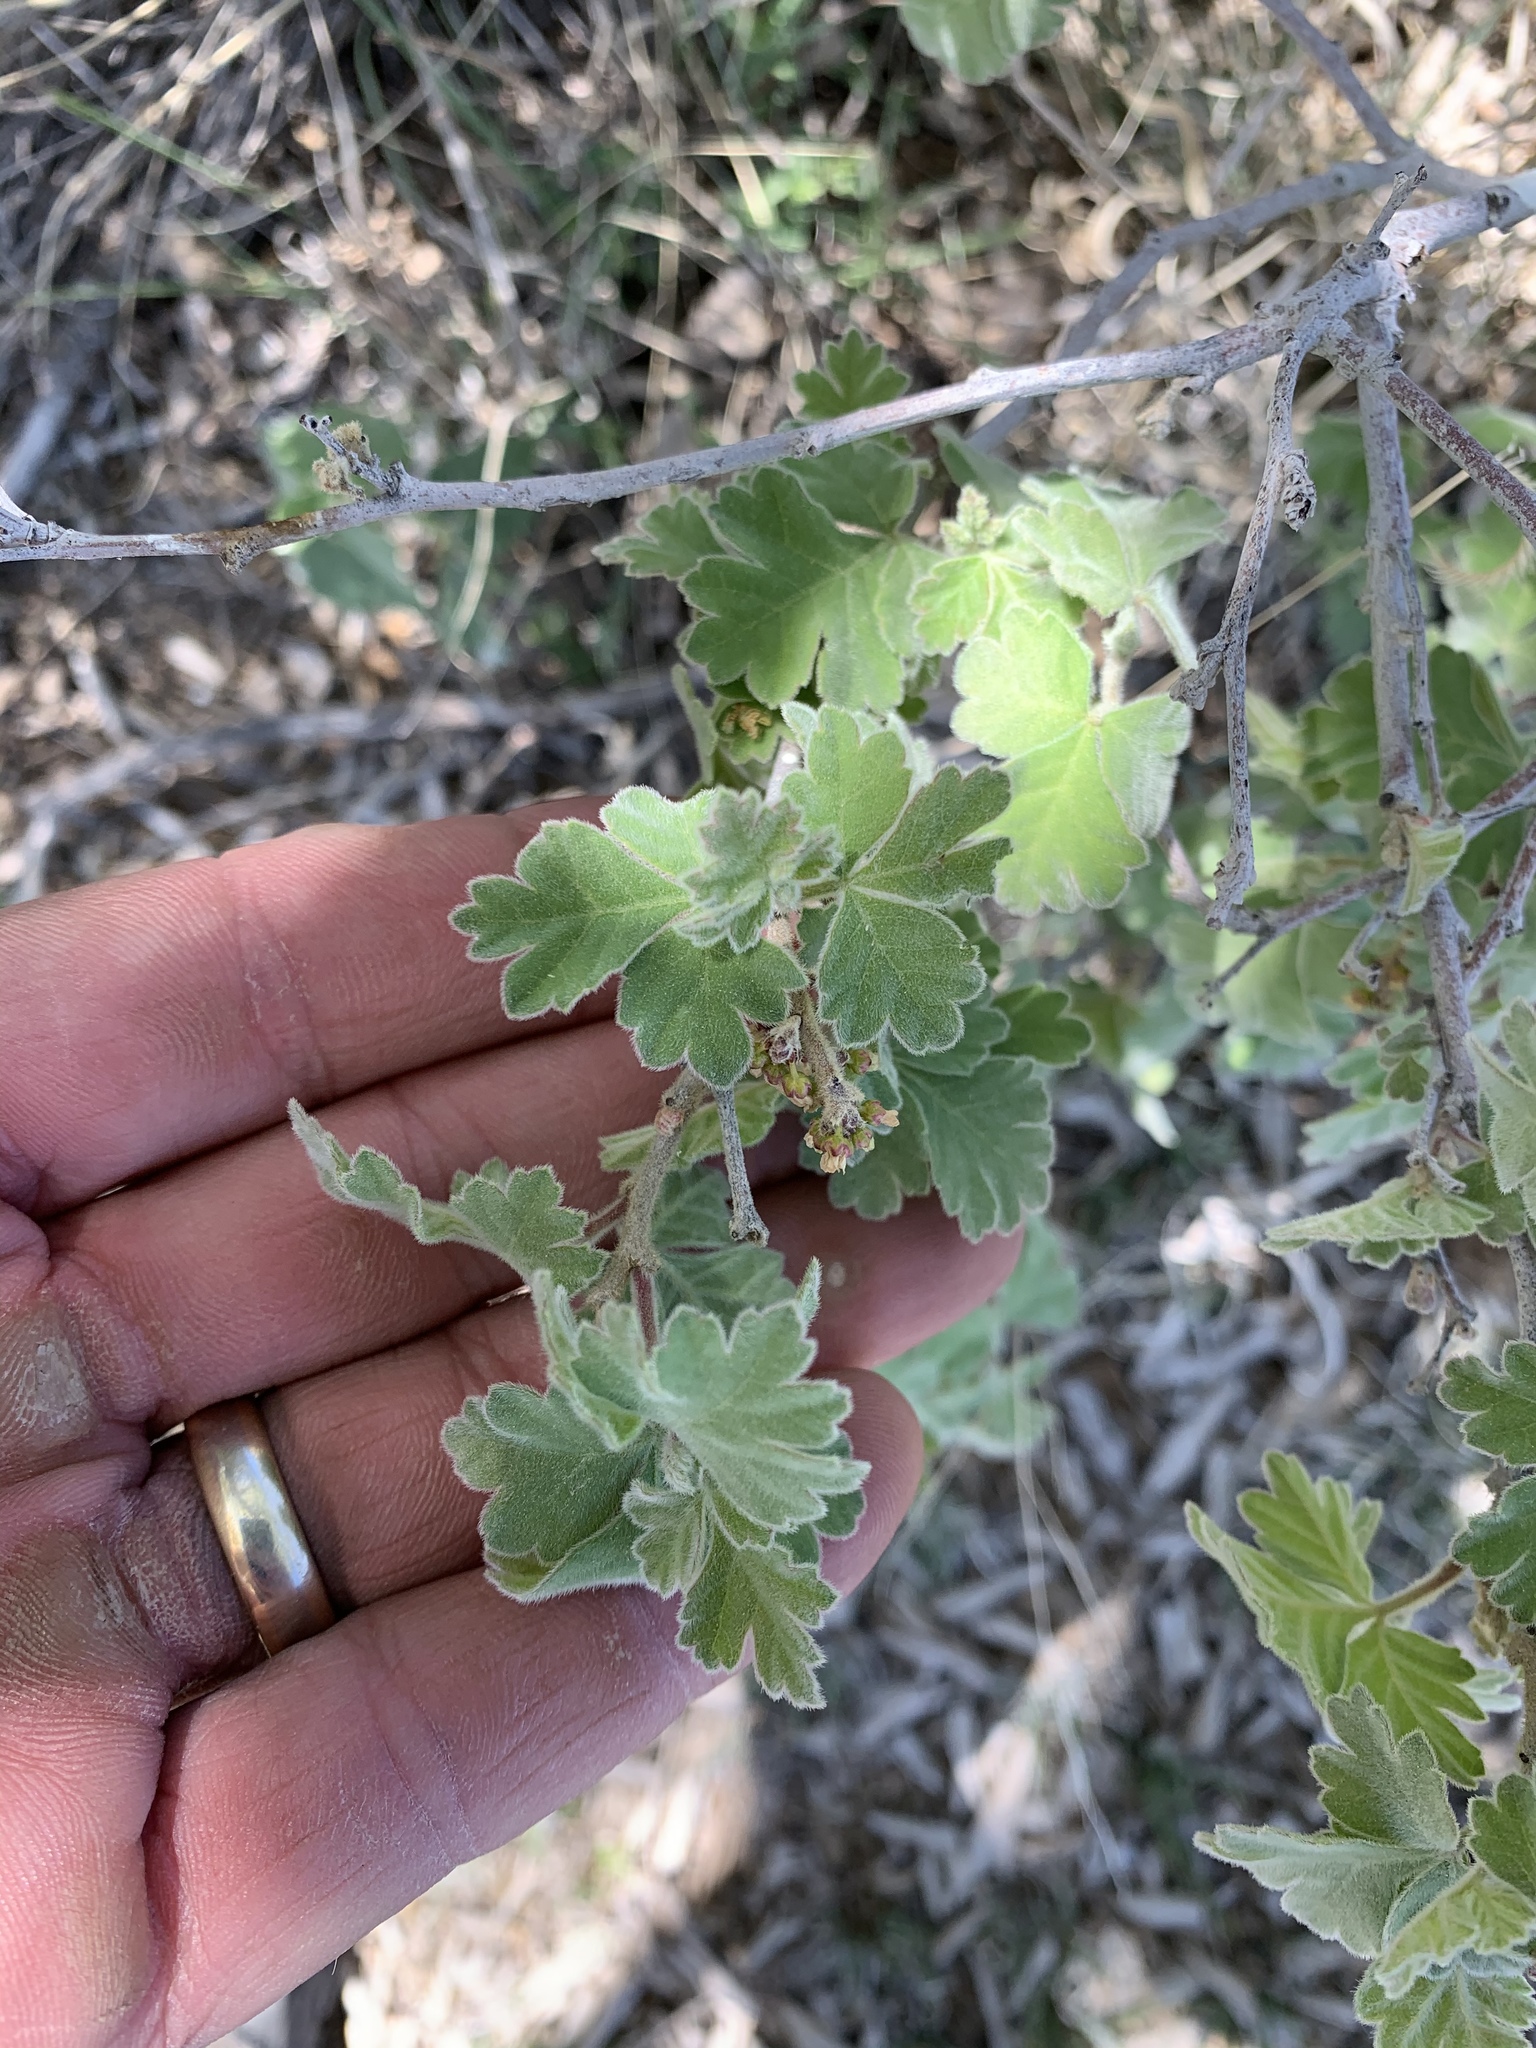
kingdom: Plantae
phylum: Tracheophyta
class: Magnoliopsida
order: Sapindales
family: Anacardiaceae
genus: Rhus
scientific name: Rhus aromatica
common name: Aromatic sumac
